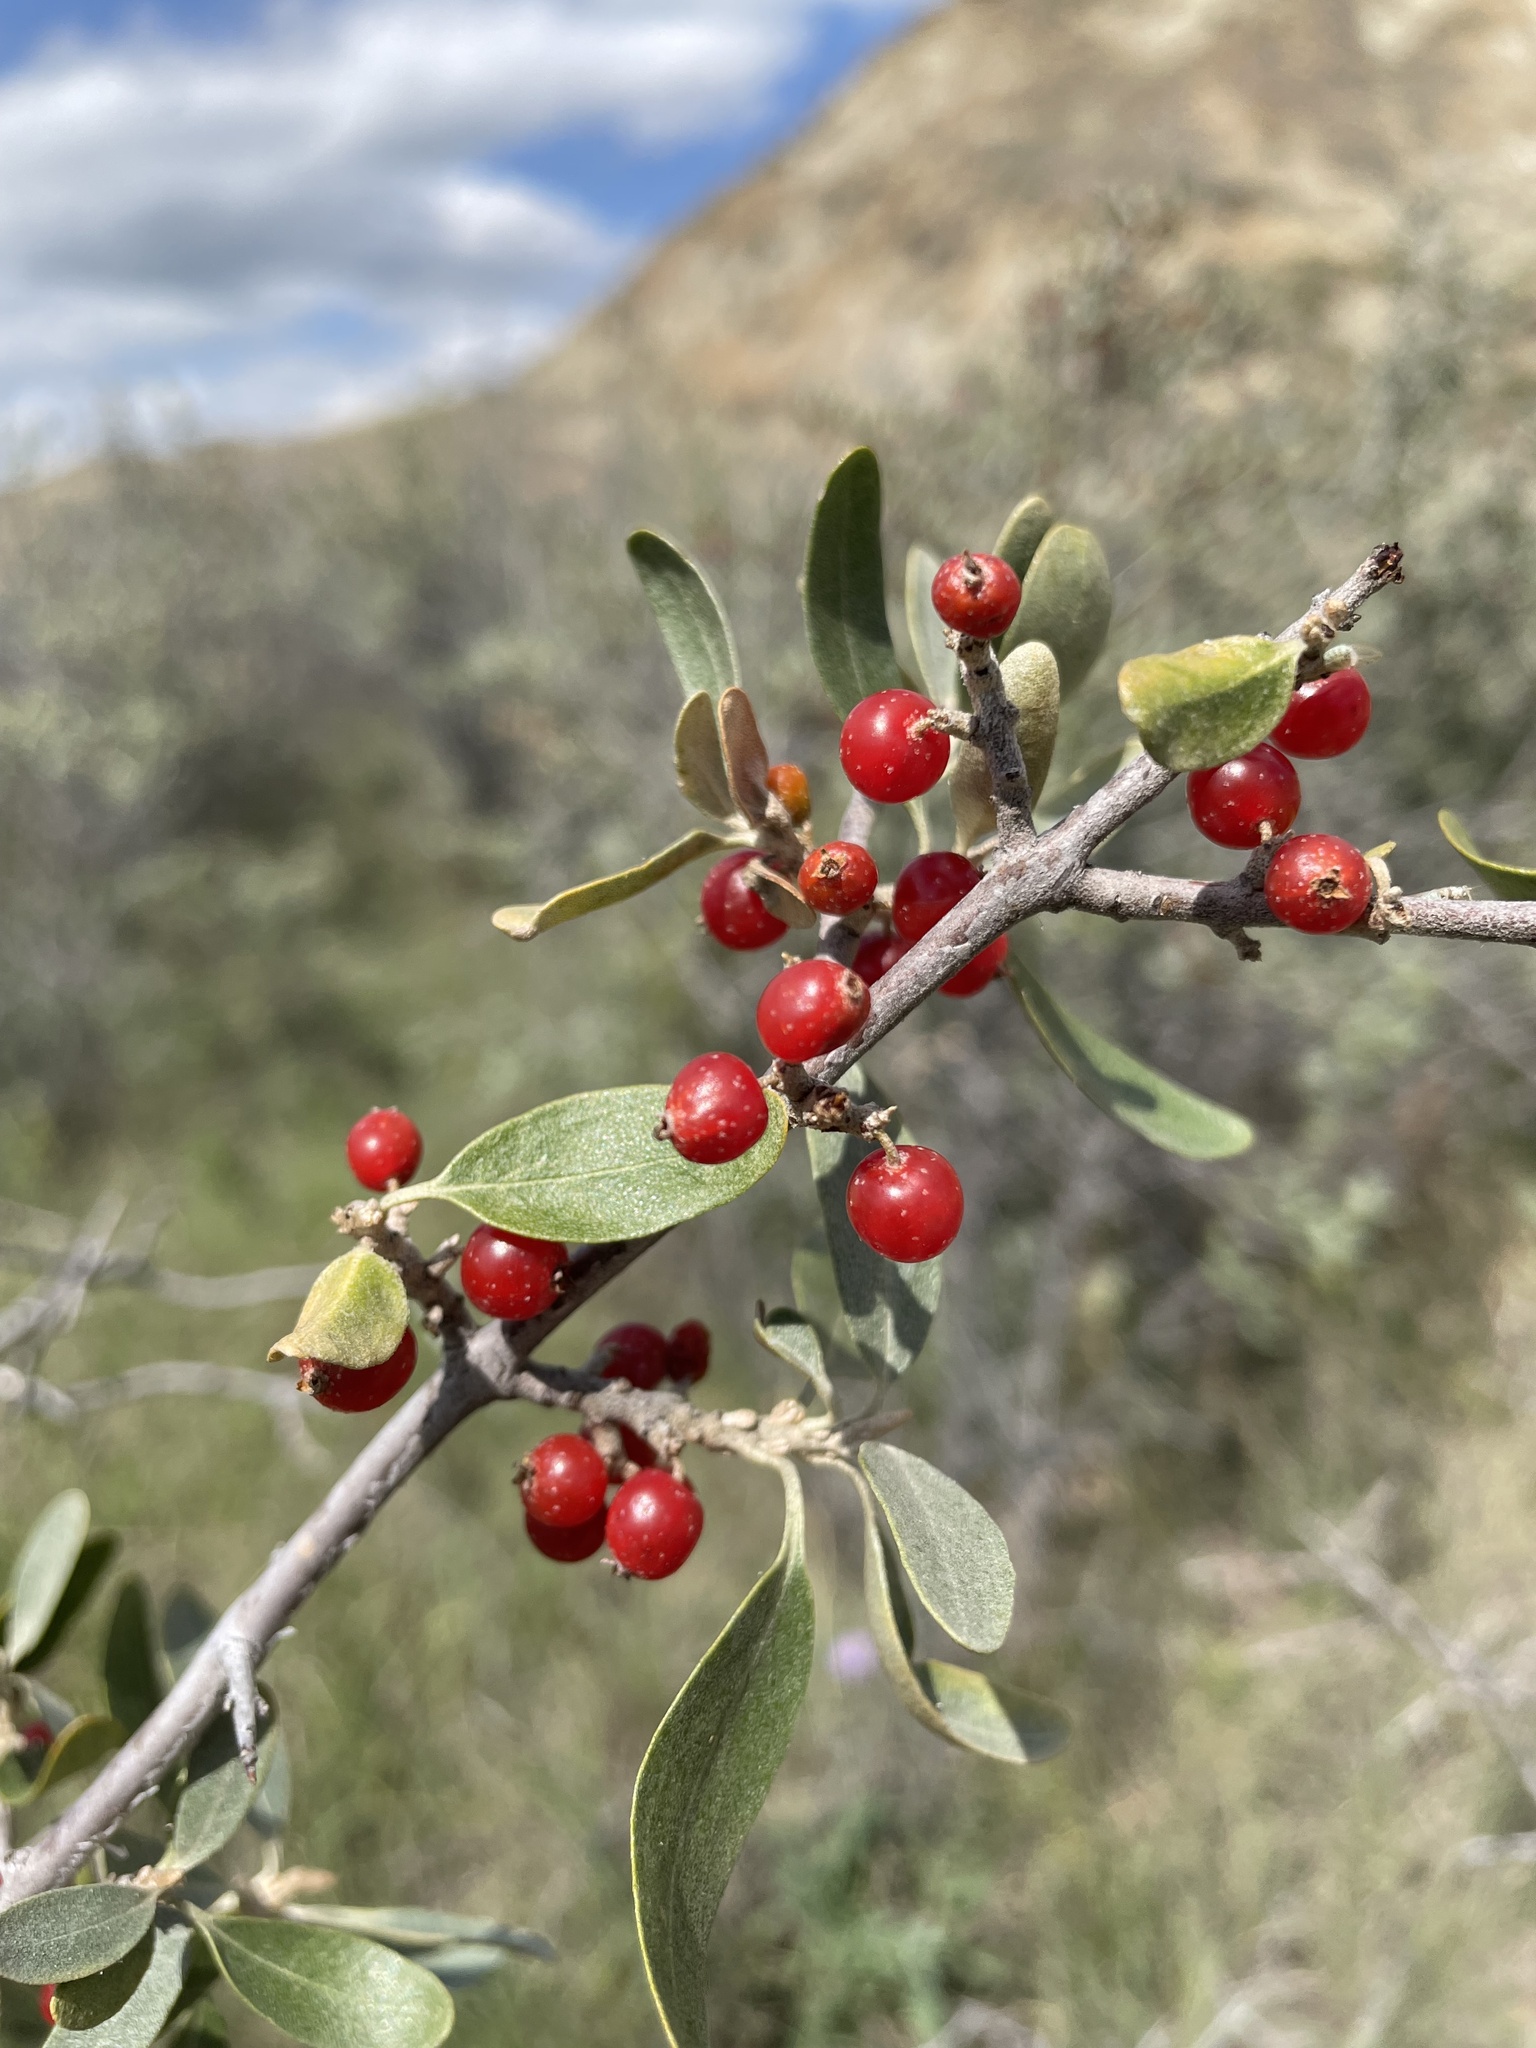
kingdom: Plantae
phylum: Tracheophyta
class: Magnoliopsida
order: Rosales
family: Elaeagnaceae
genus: Shepherdia
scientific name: Shepherdia argentea
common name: Silver buffaloberry
